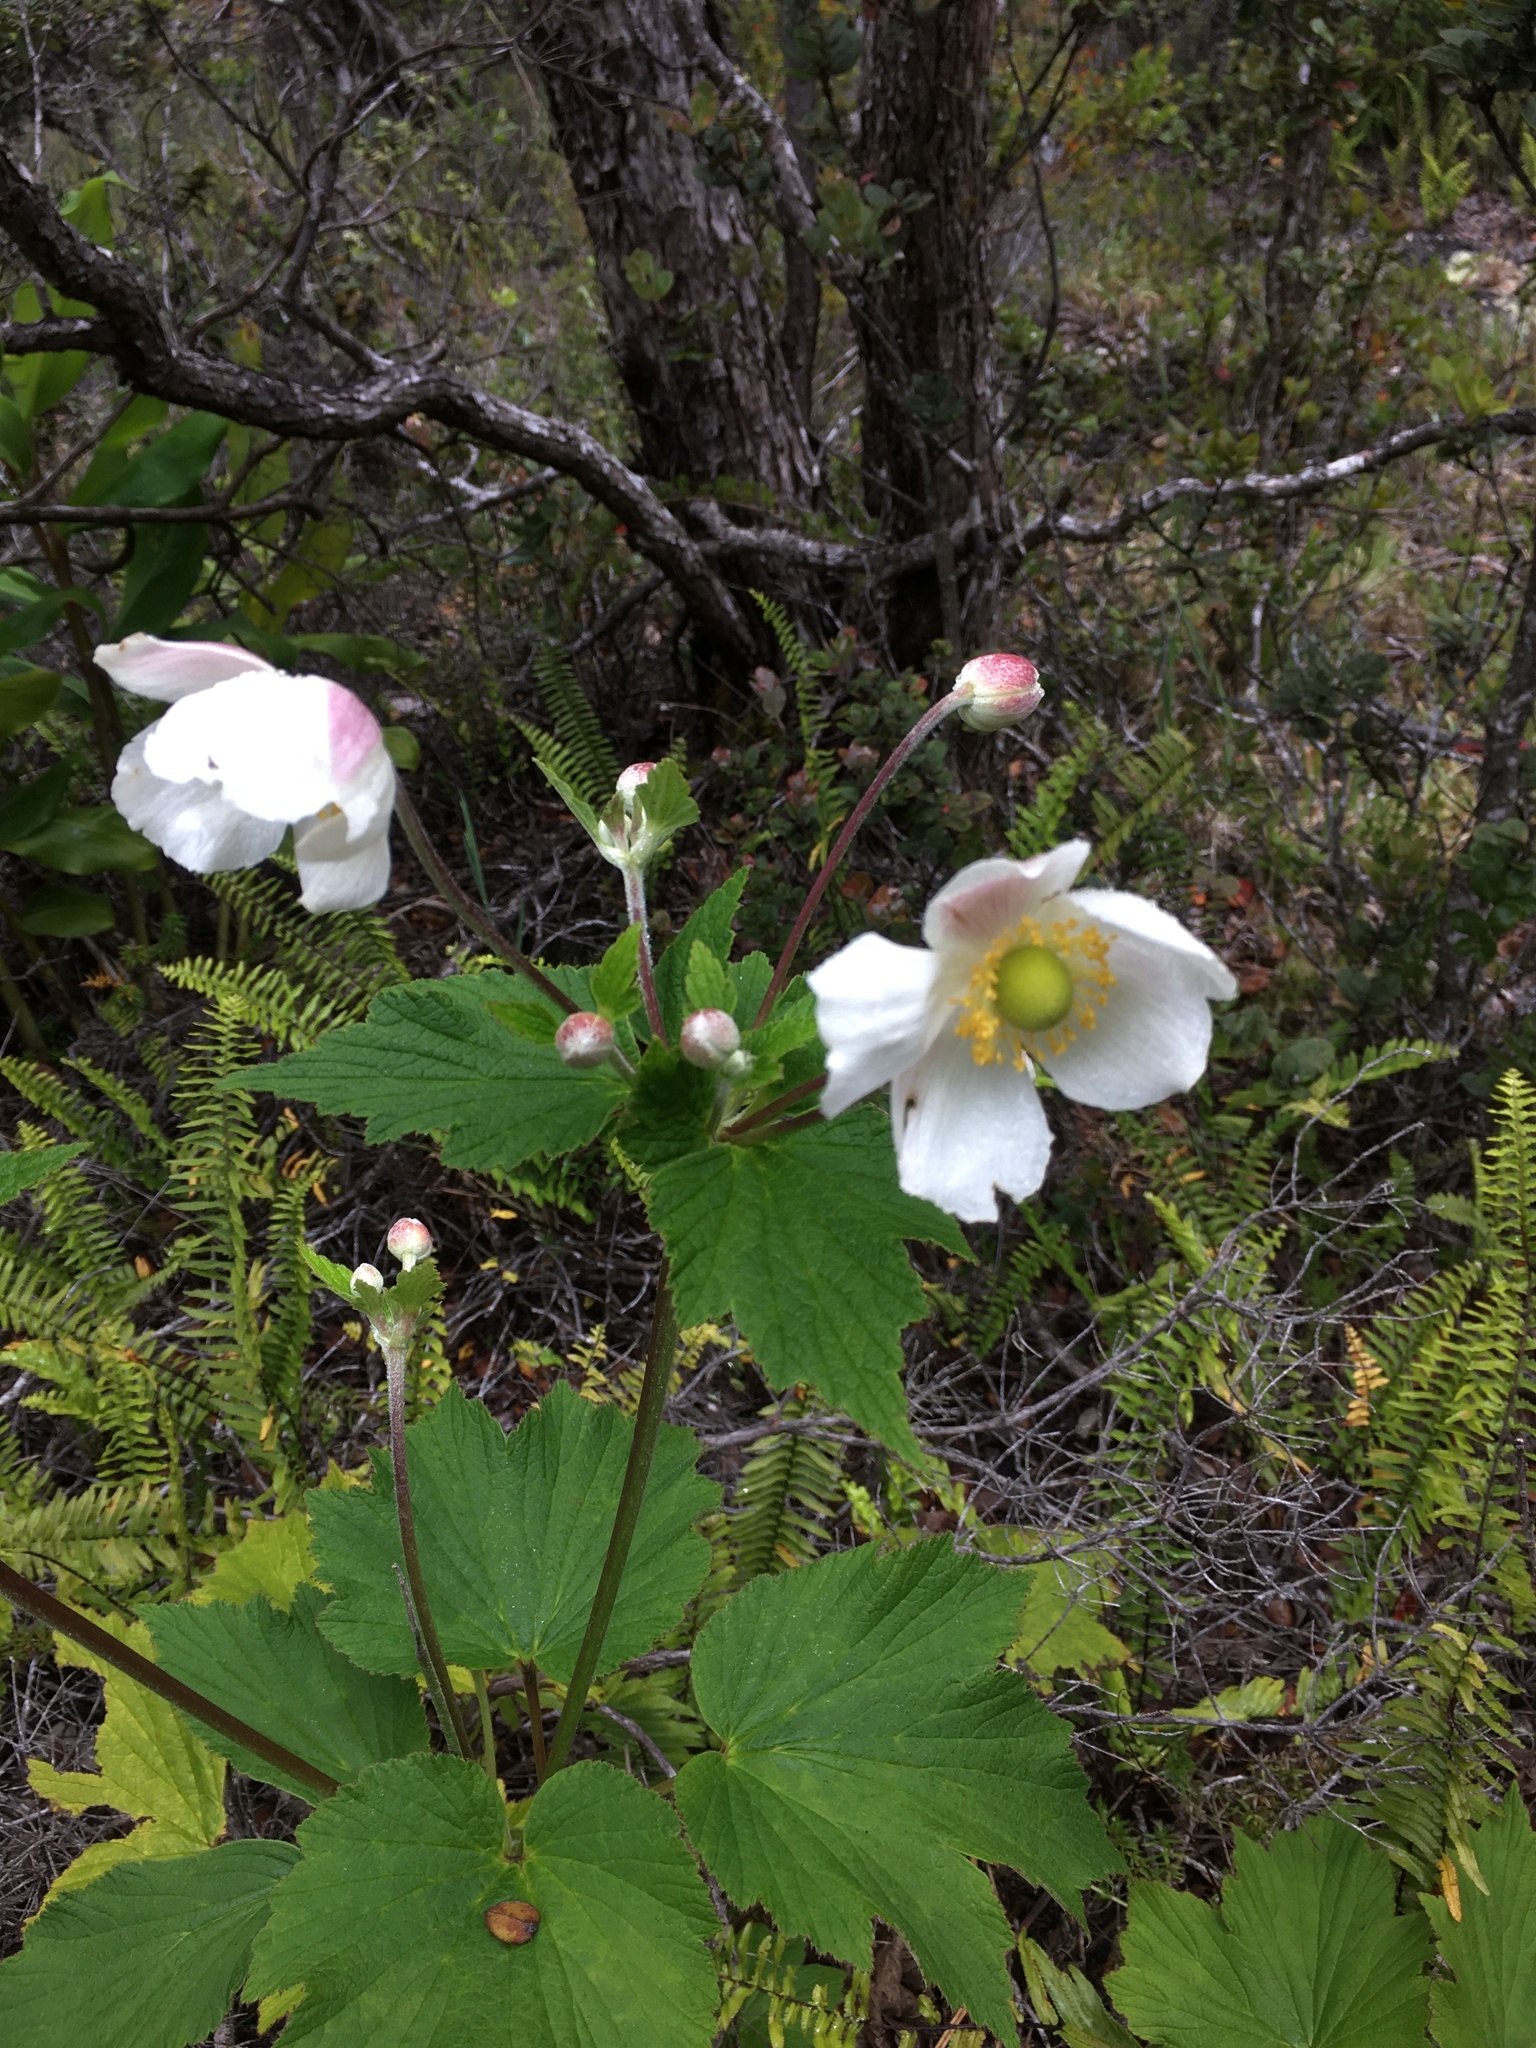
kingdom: Plantae
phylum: Tracheophyta
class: Magnoliopsida
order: Ranunculales
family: Ranunculaceae
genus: Eriocapitella
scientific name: Eriocapitella japonica
